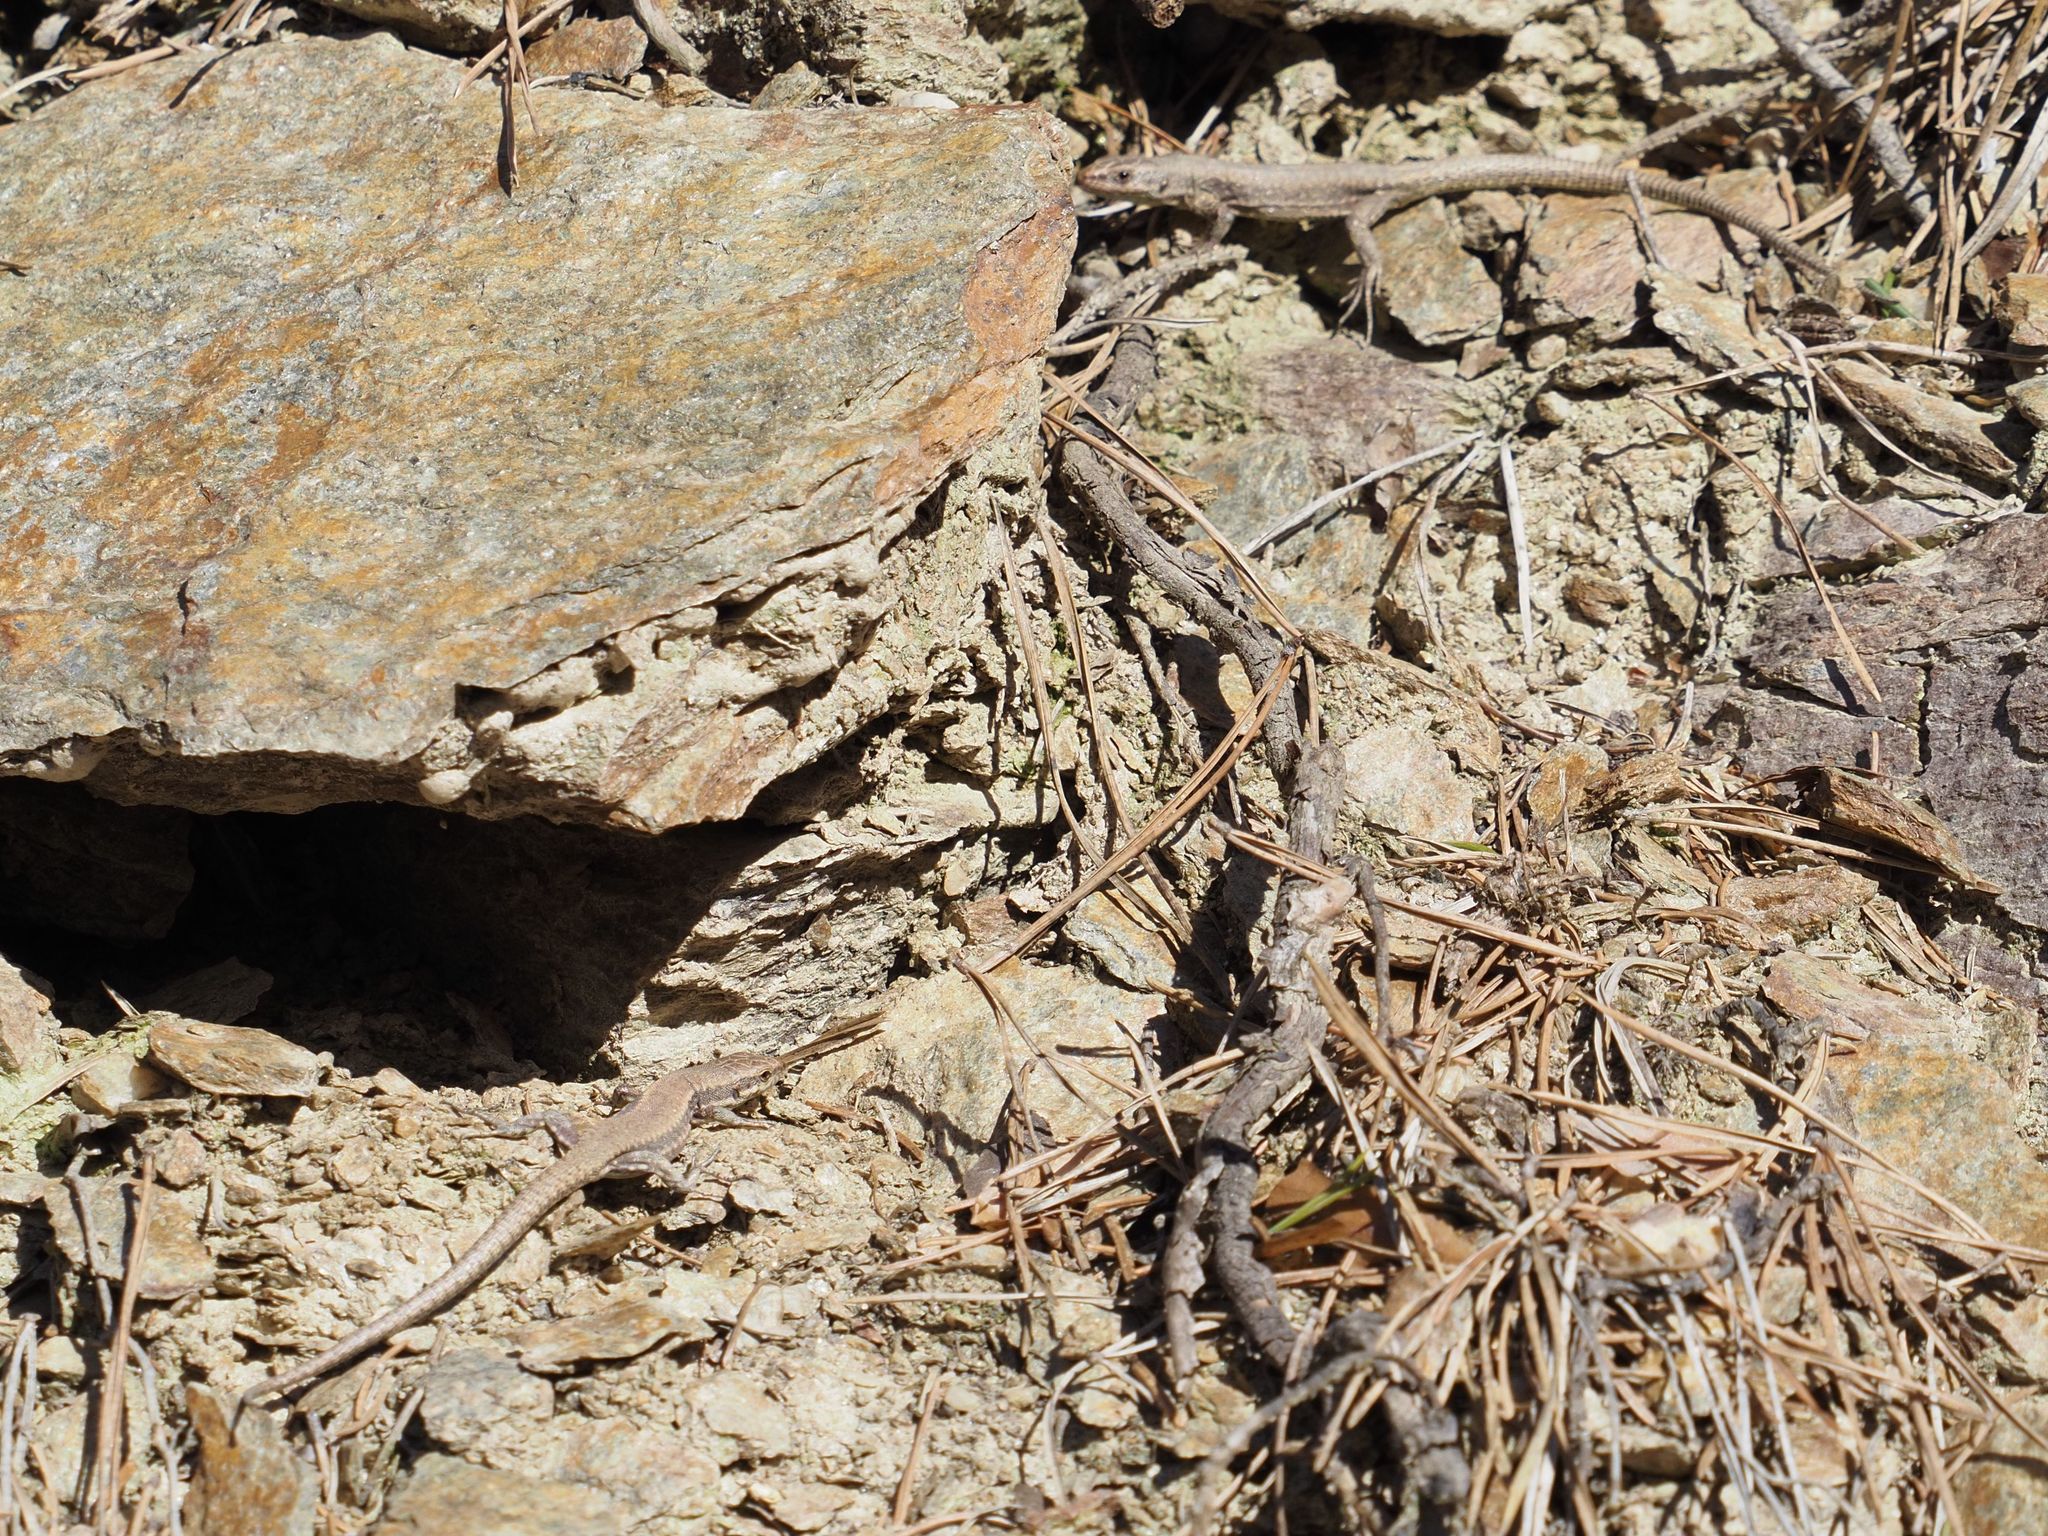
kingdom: Animalia
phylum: Chordata
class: Squamata
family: Lacertidae
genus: Podarcis
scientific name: Podarcis muralis
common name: Common wall lizard
